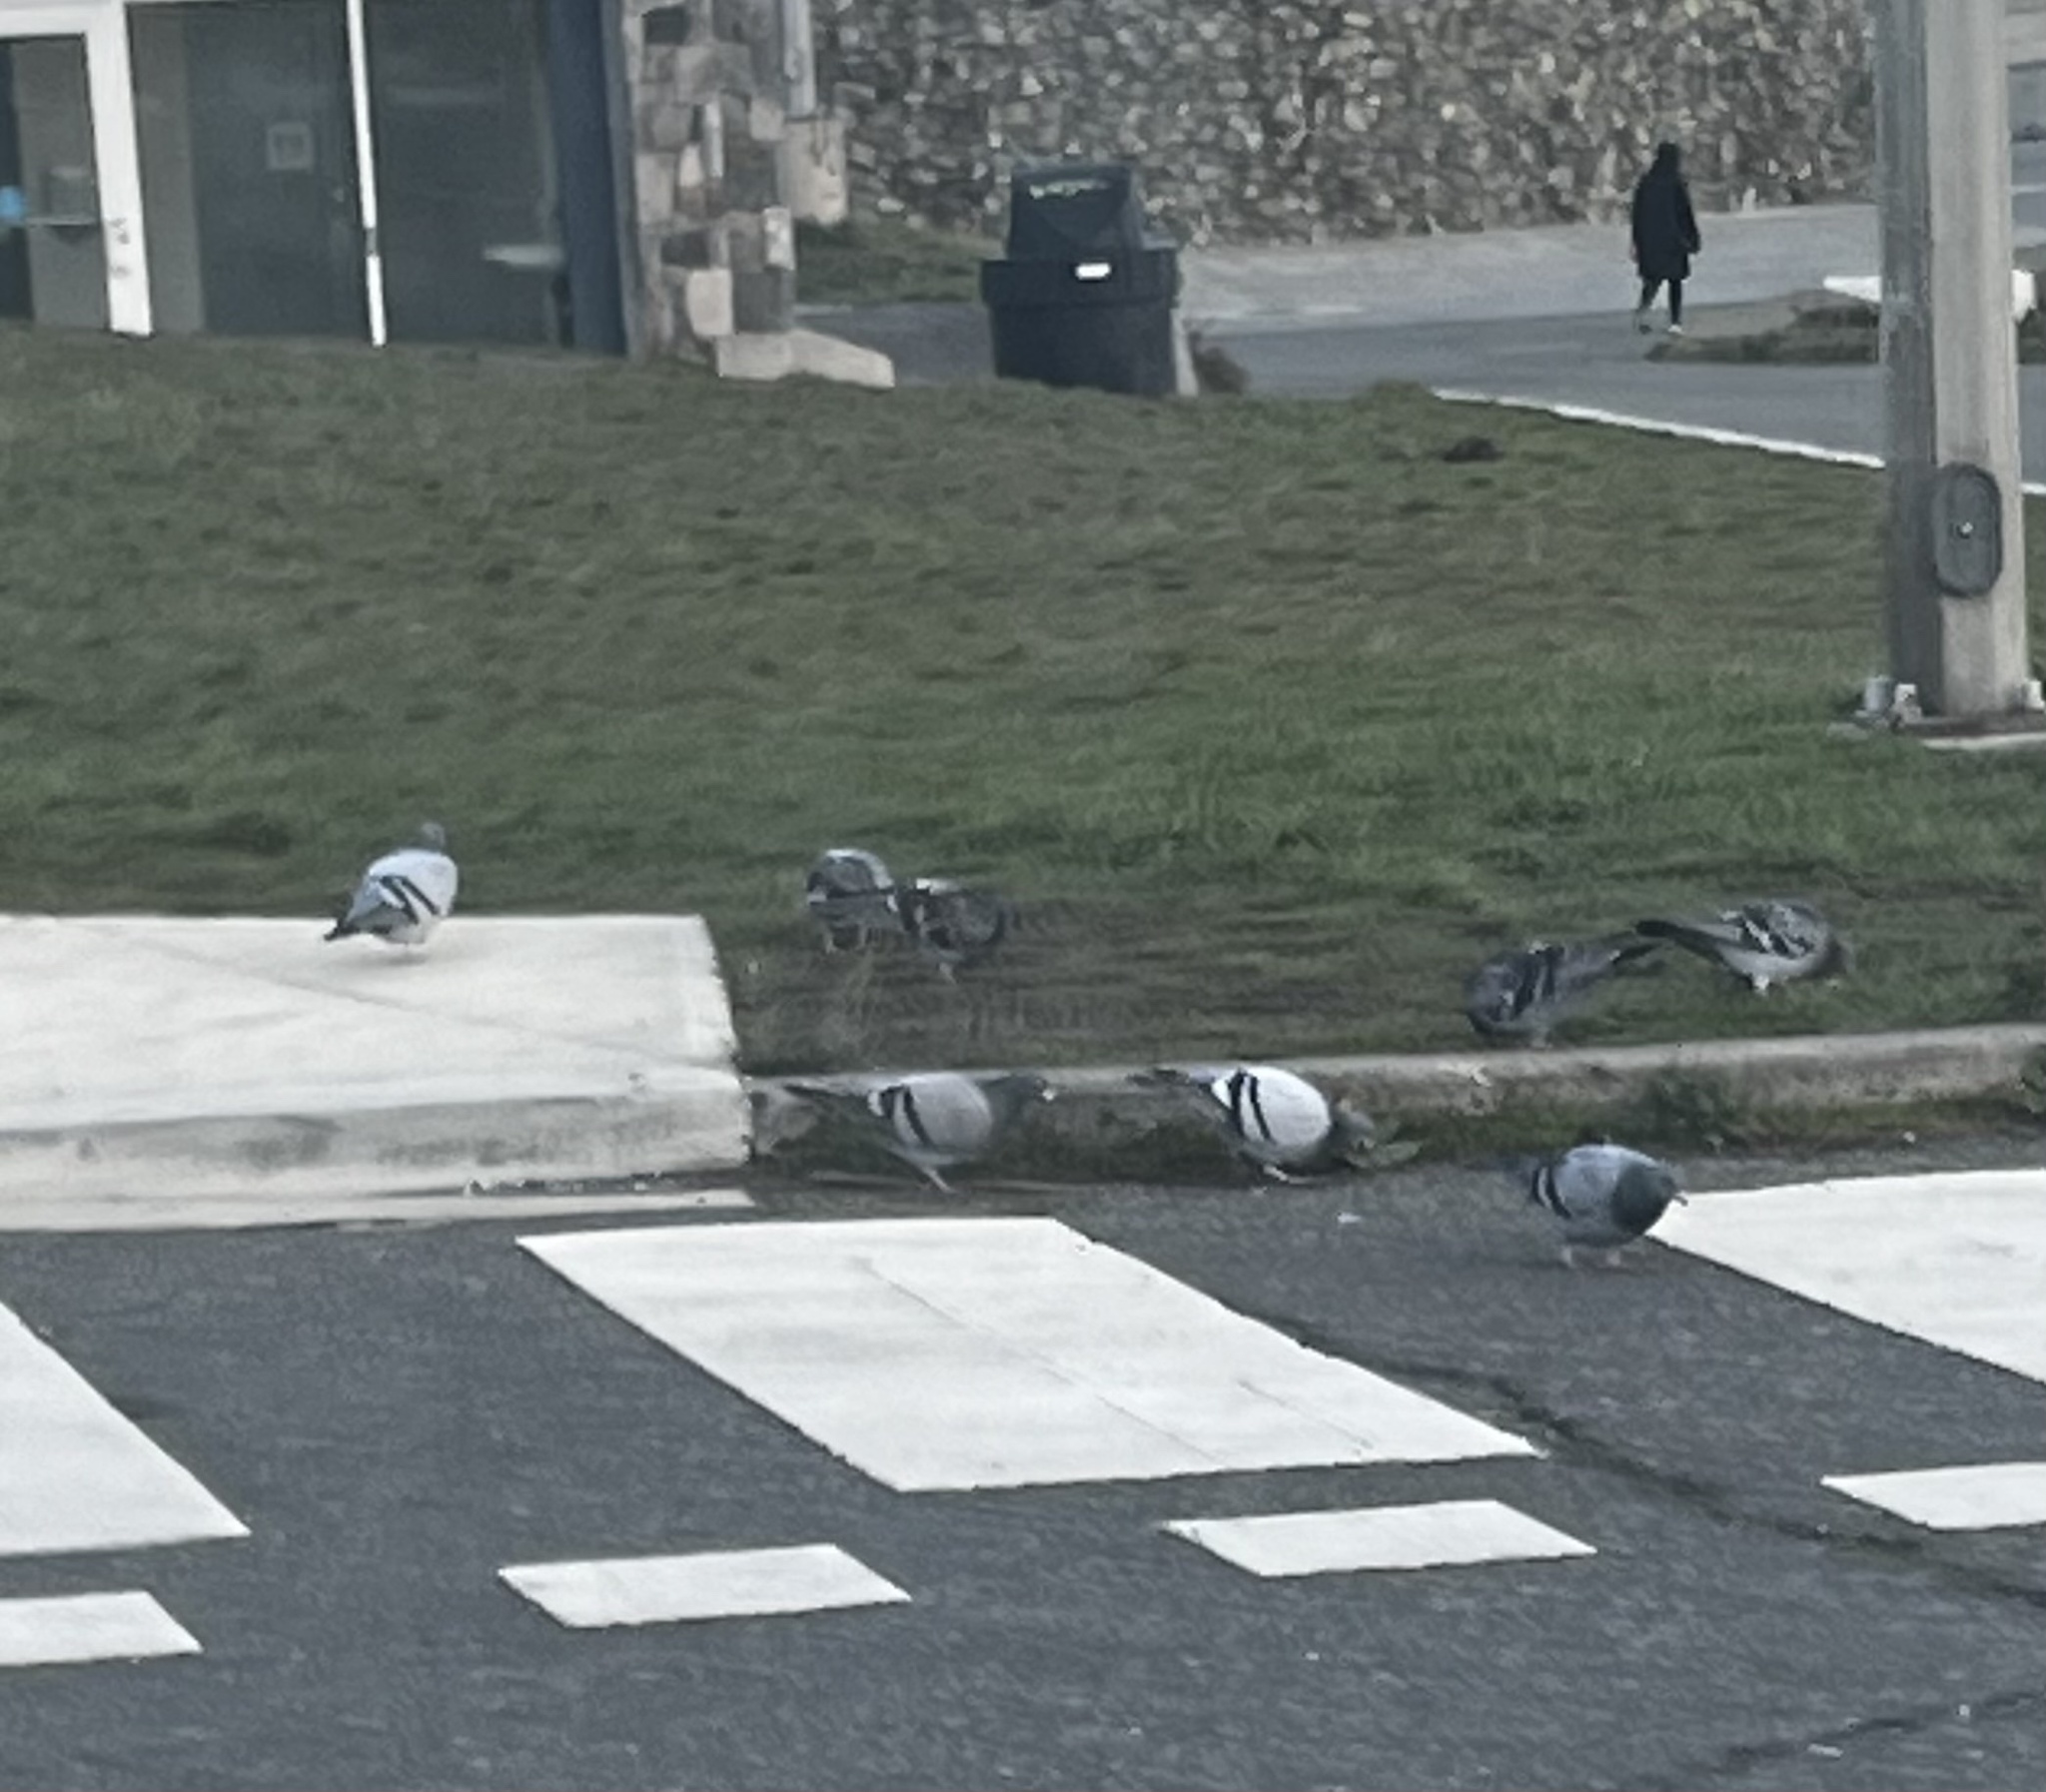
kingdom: Animalia
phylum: Chordata
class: Aves
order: Columbiformes
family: Columbidae
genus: Columba
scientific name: Columba livia
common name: Rock pigeon
